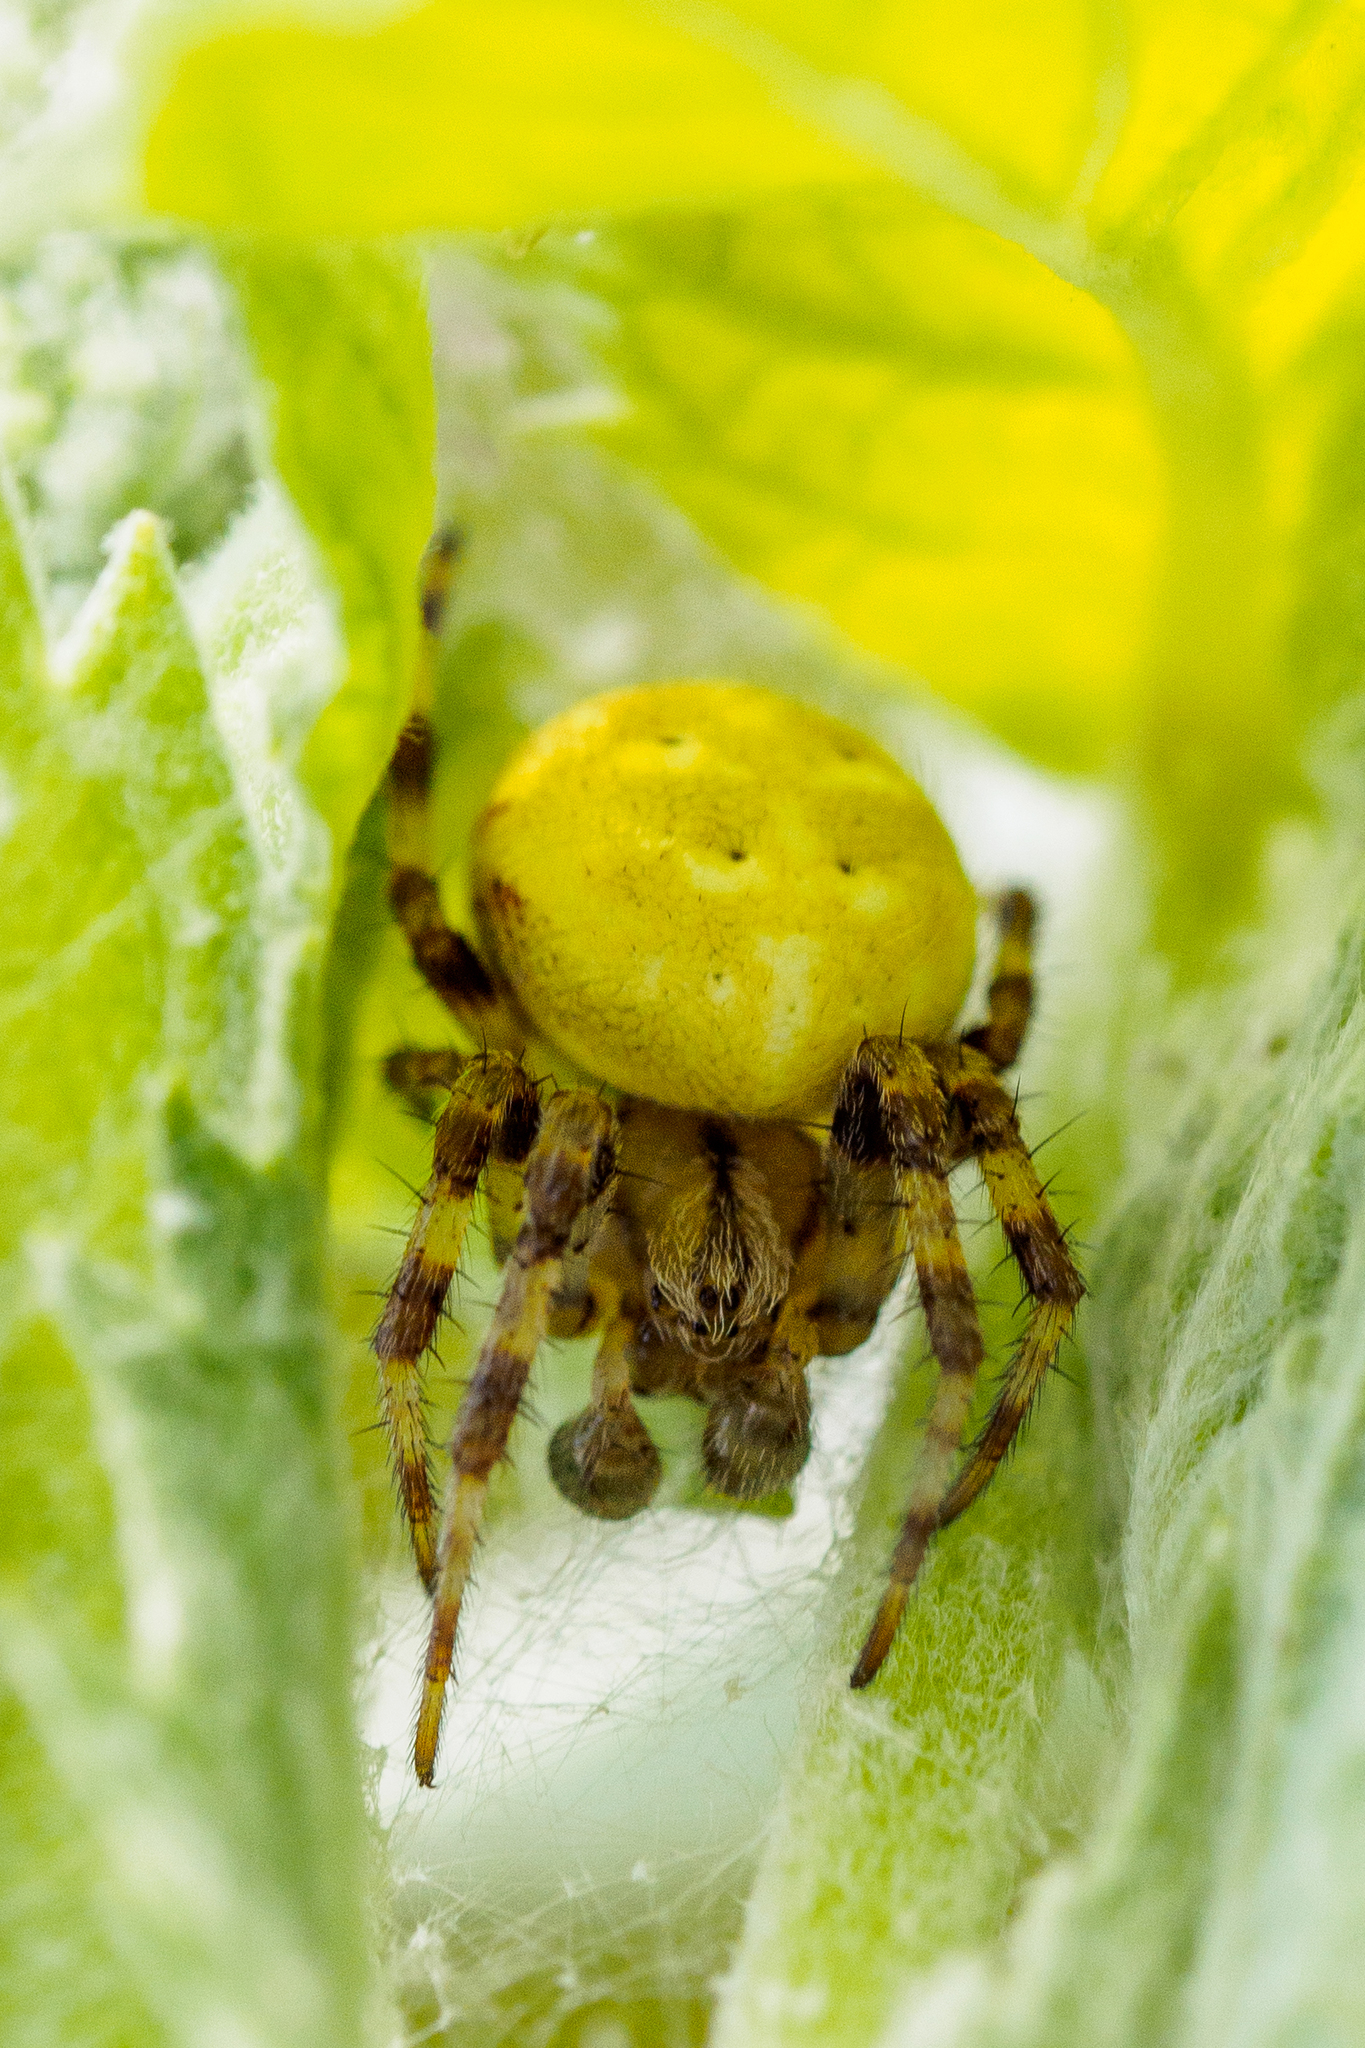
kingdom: Animalia
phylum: Arthropoda
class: Arachnida
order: Araneae
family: Araneidae
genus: Araneus
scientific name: Araneus quadratus
